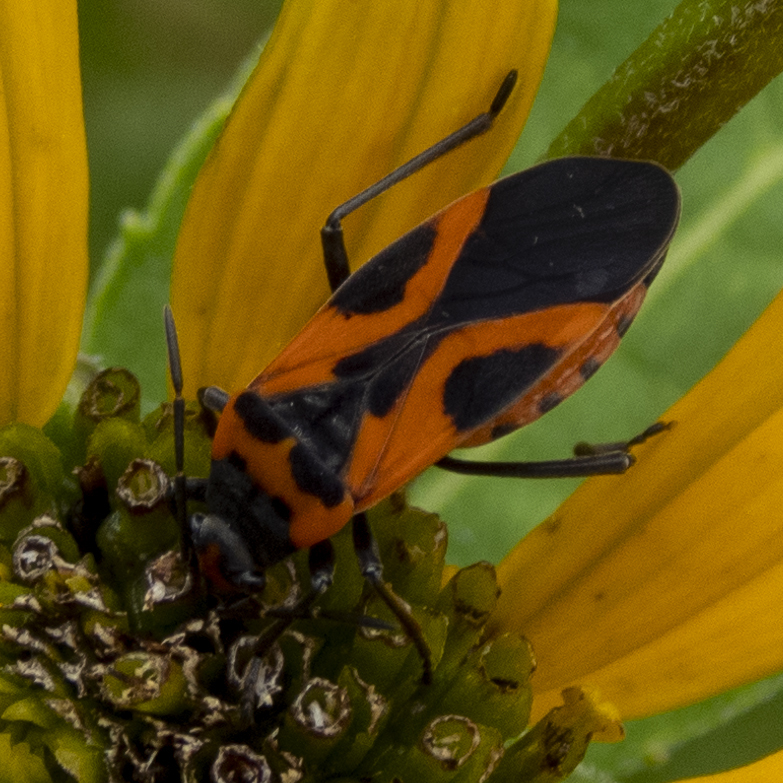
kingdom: Animalia
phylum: Arthropoda
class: Insecta
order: Hemiptera
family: Lygaeidae
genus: Lygaeus
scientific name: Lygaeus turcicus
